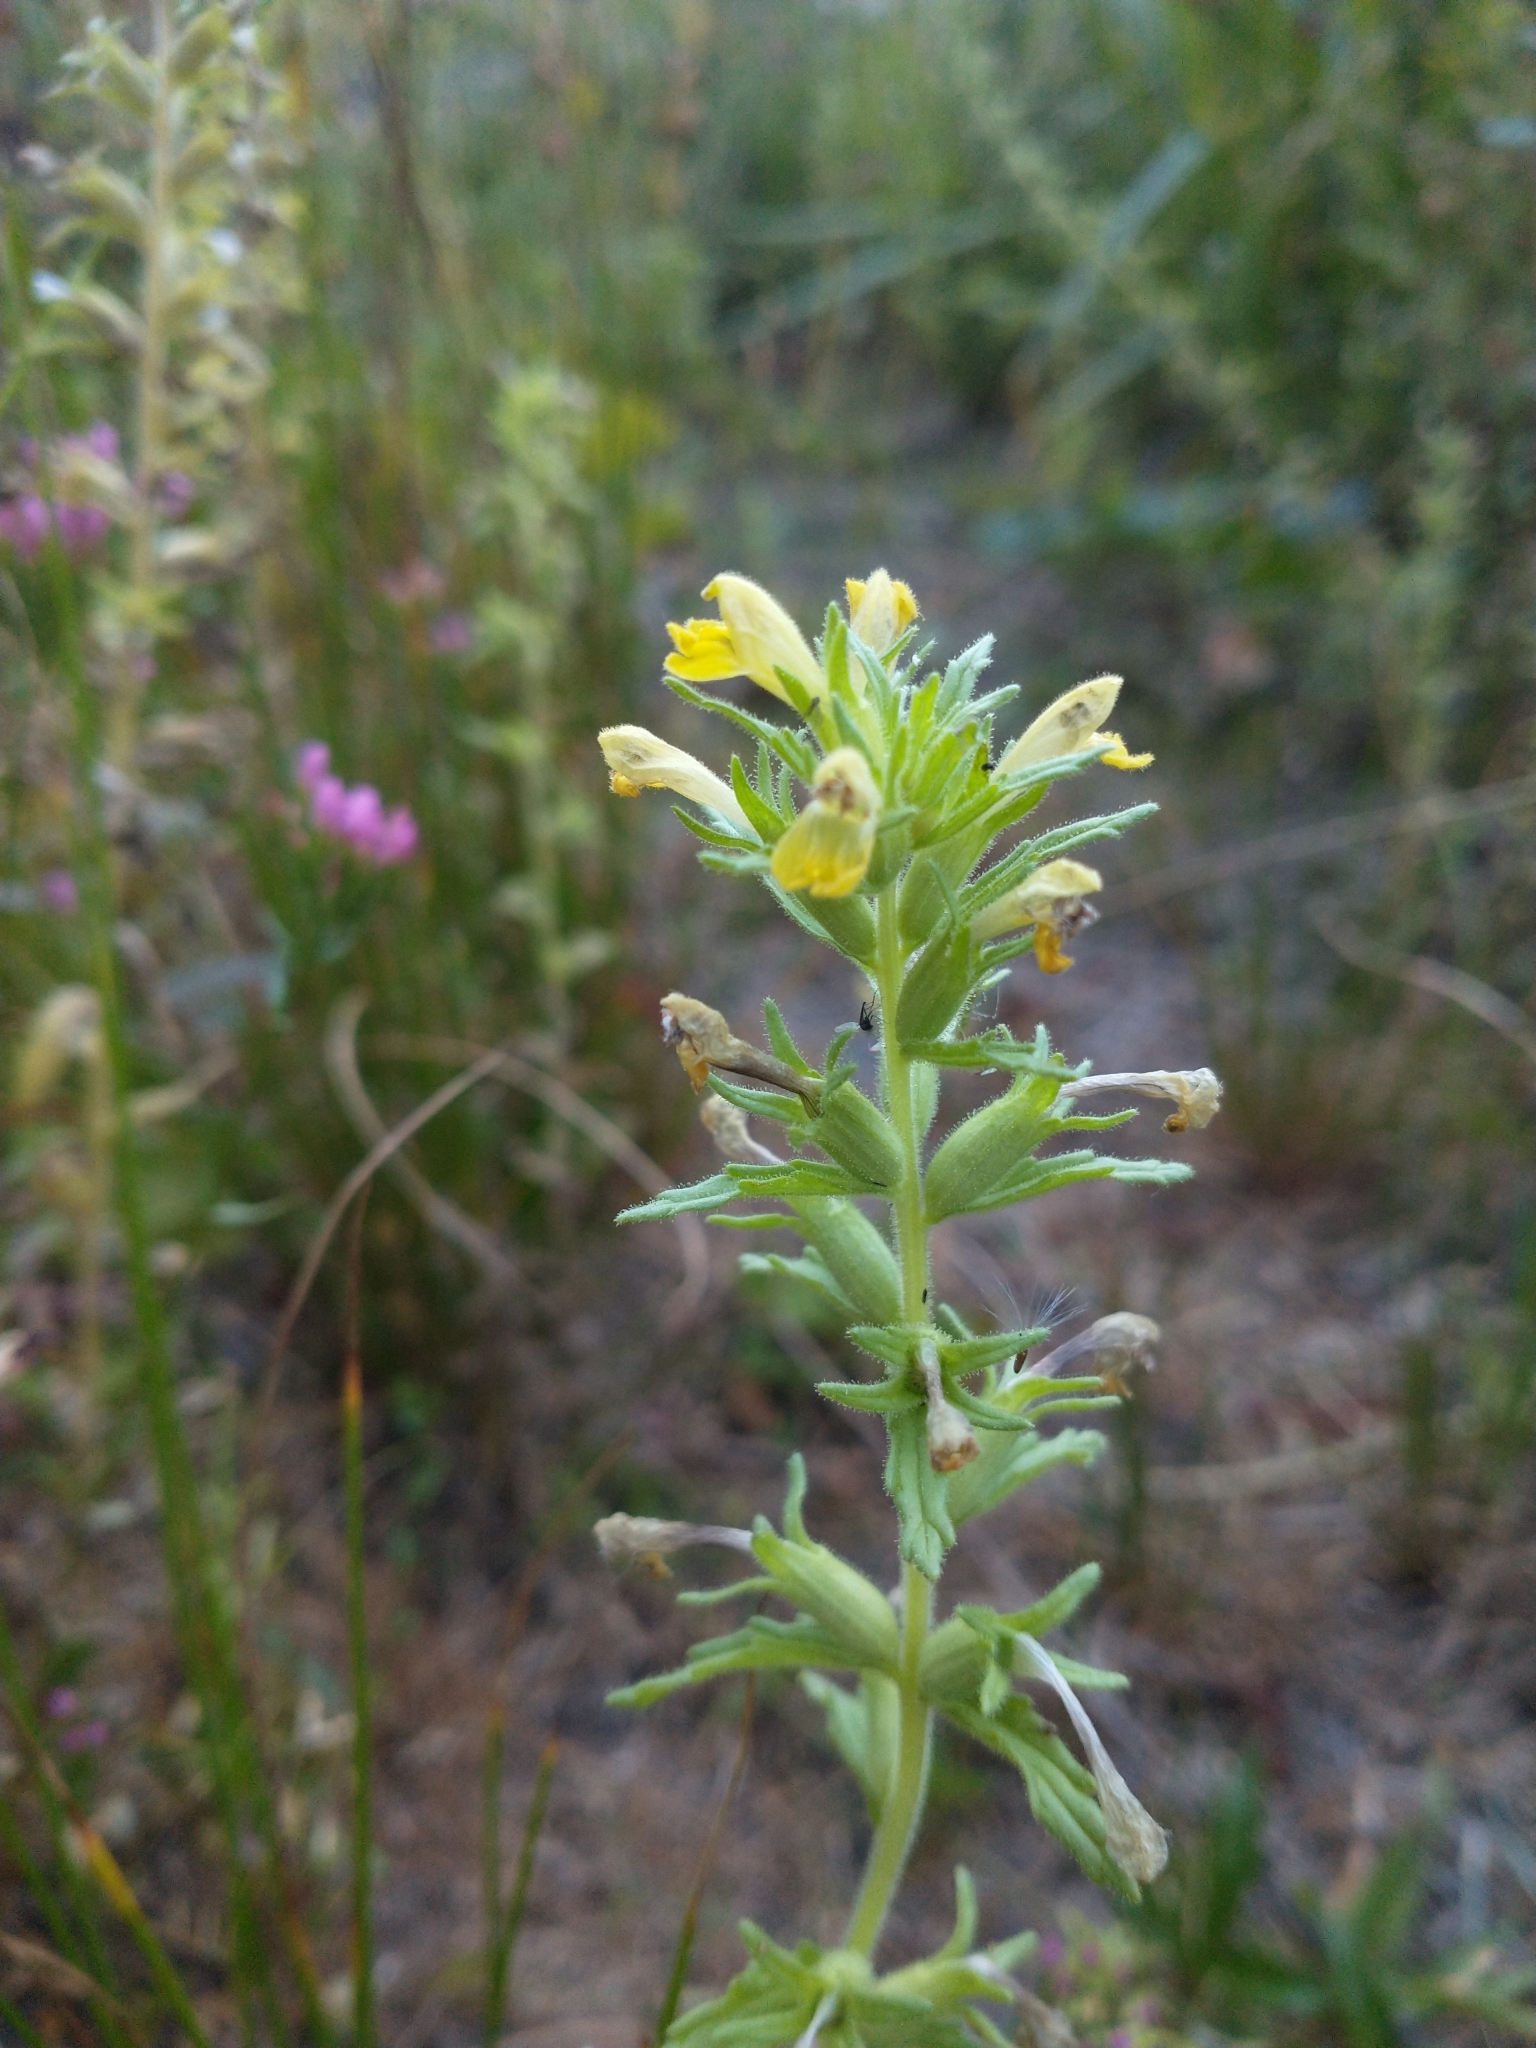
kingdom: Plantae
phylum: Tracheophyta
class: Magnoliopsida
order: Lamiales
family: Orobanchaceae
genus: Bellardia
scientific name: Bellardia viscosa
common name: Sticky parentucellia
